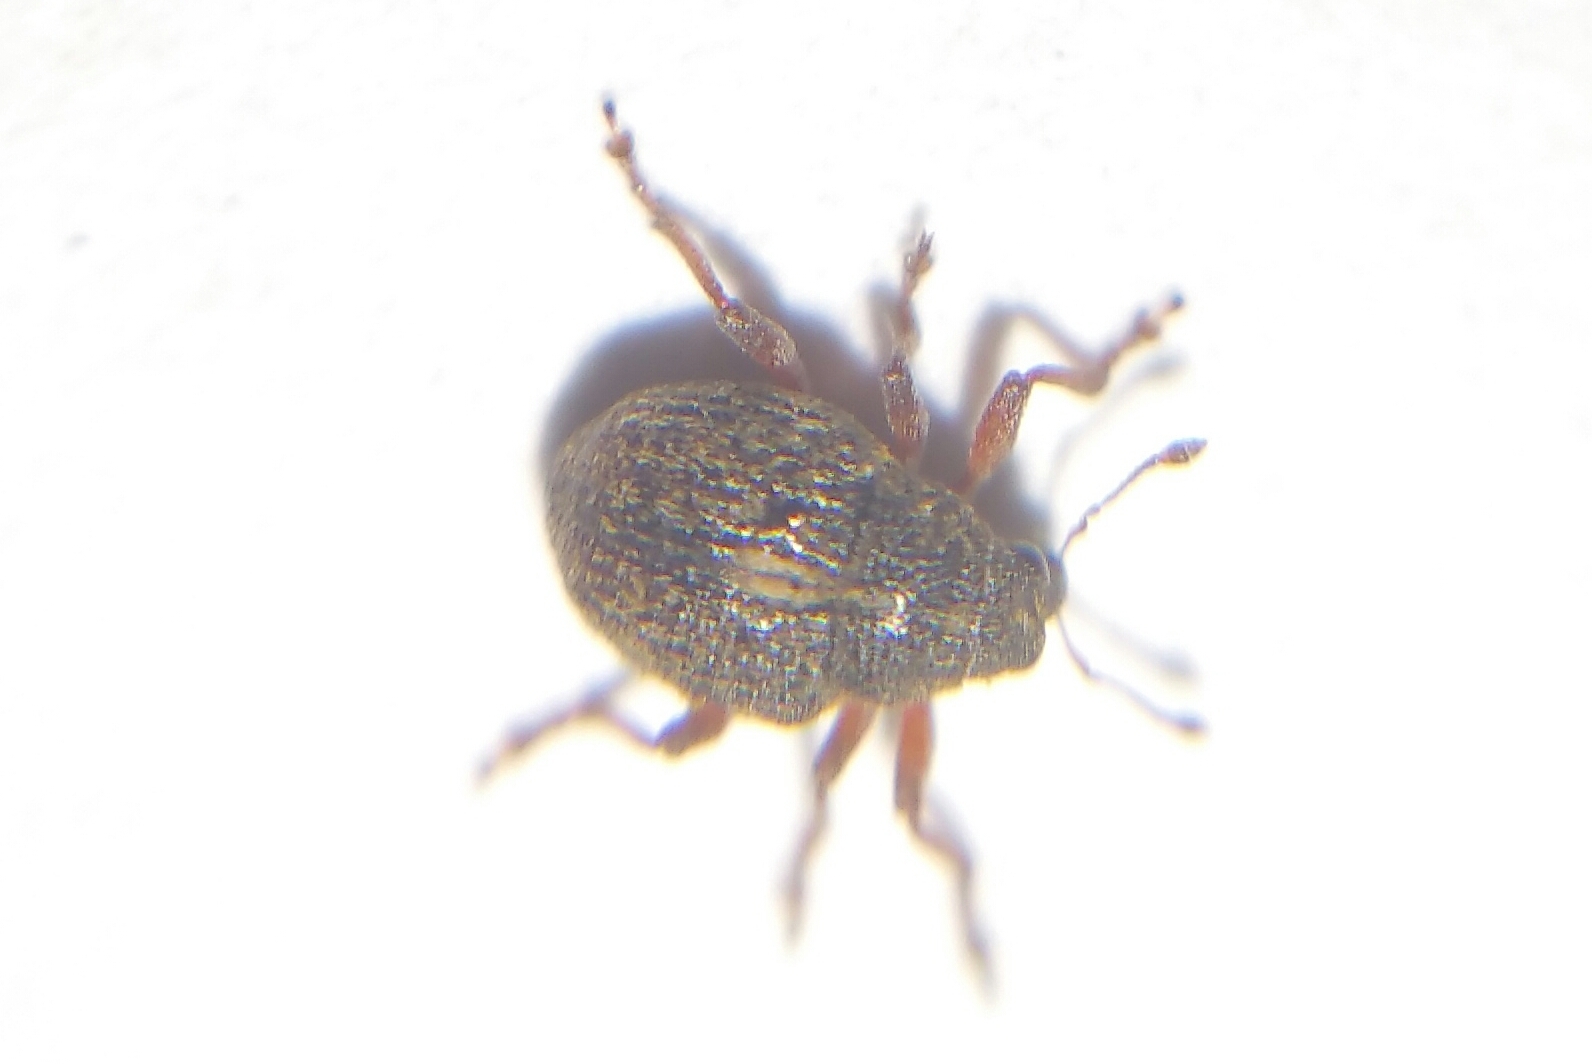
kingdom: Animalia
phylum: Arthropoda
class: Insecta
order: Coleoptera
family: Curculionidae
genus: Rhinoncus
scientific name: Rhinoncus leucostigma
